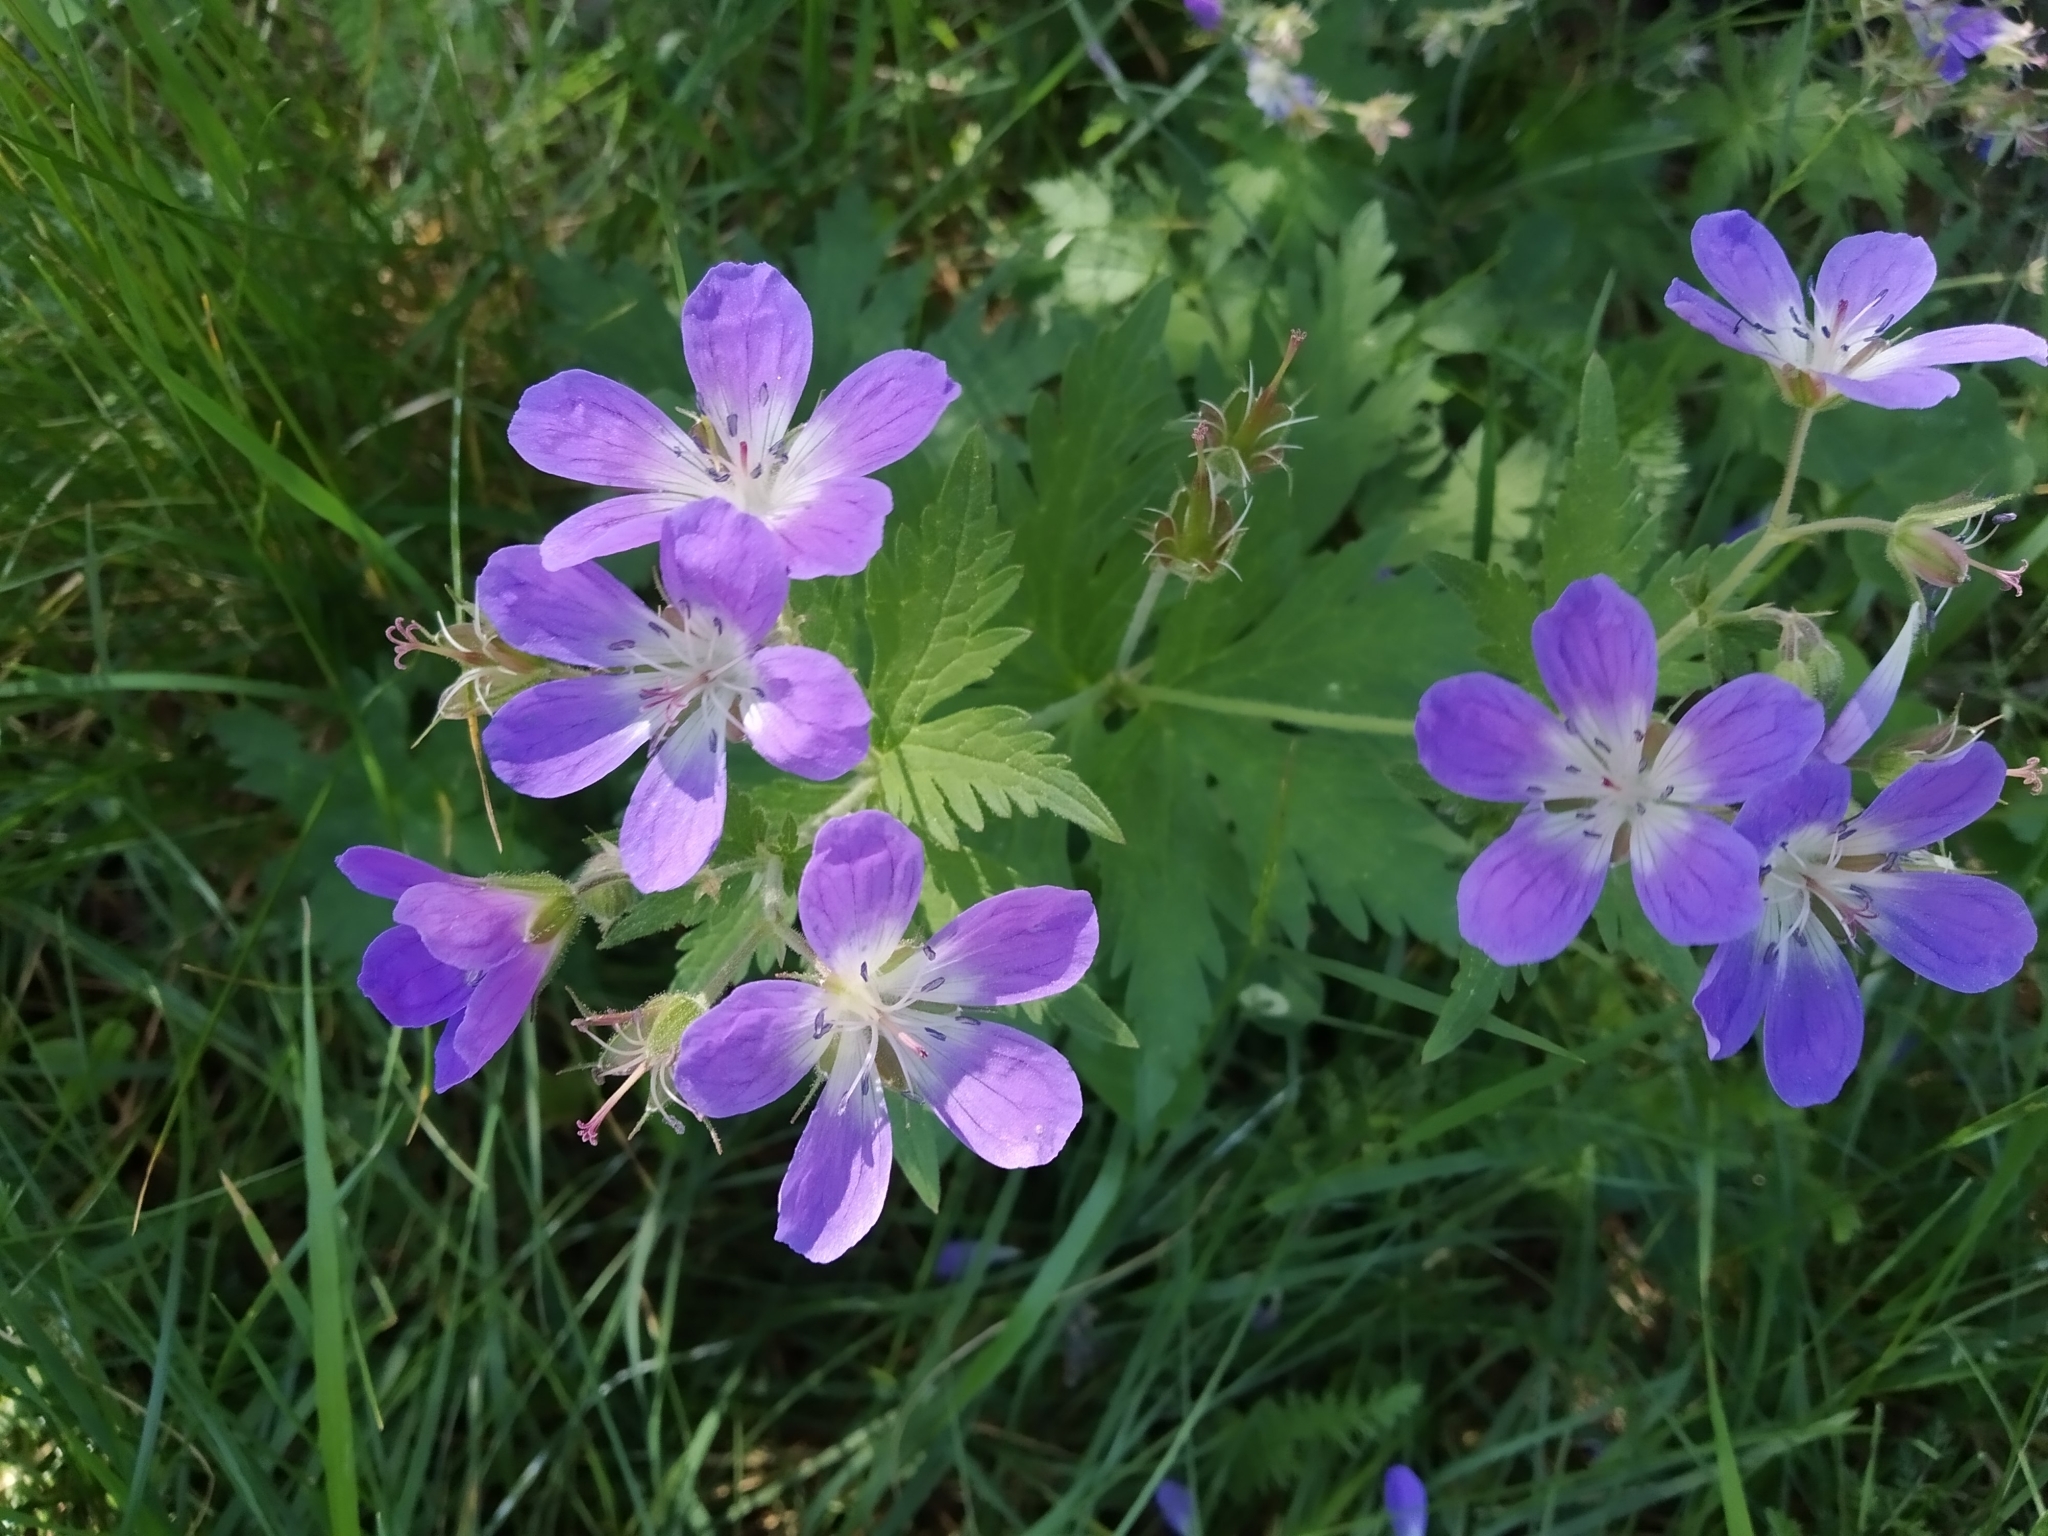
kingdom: Plantae
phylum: Tracheophyta
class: Magnoliopsida
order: Geraniales
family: Geraniaceae
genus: Geranium
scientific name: Geranium sylvaticum
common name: Wood crane's-bill
